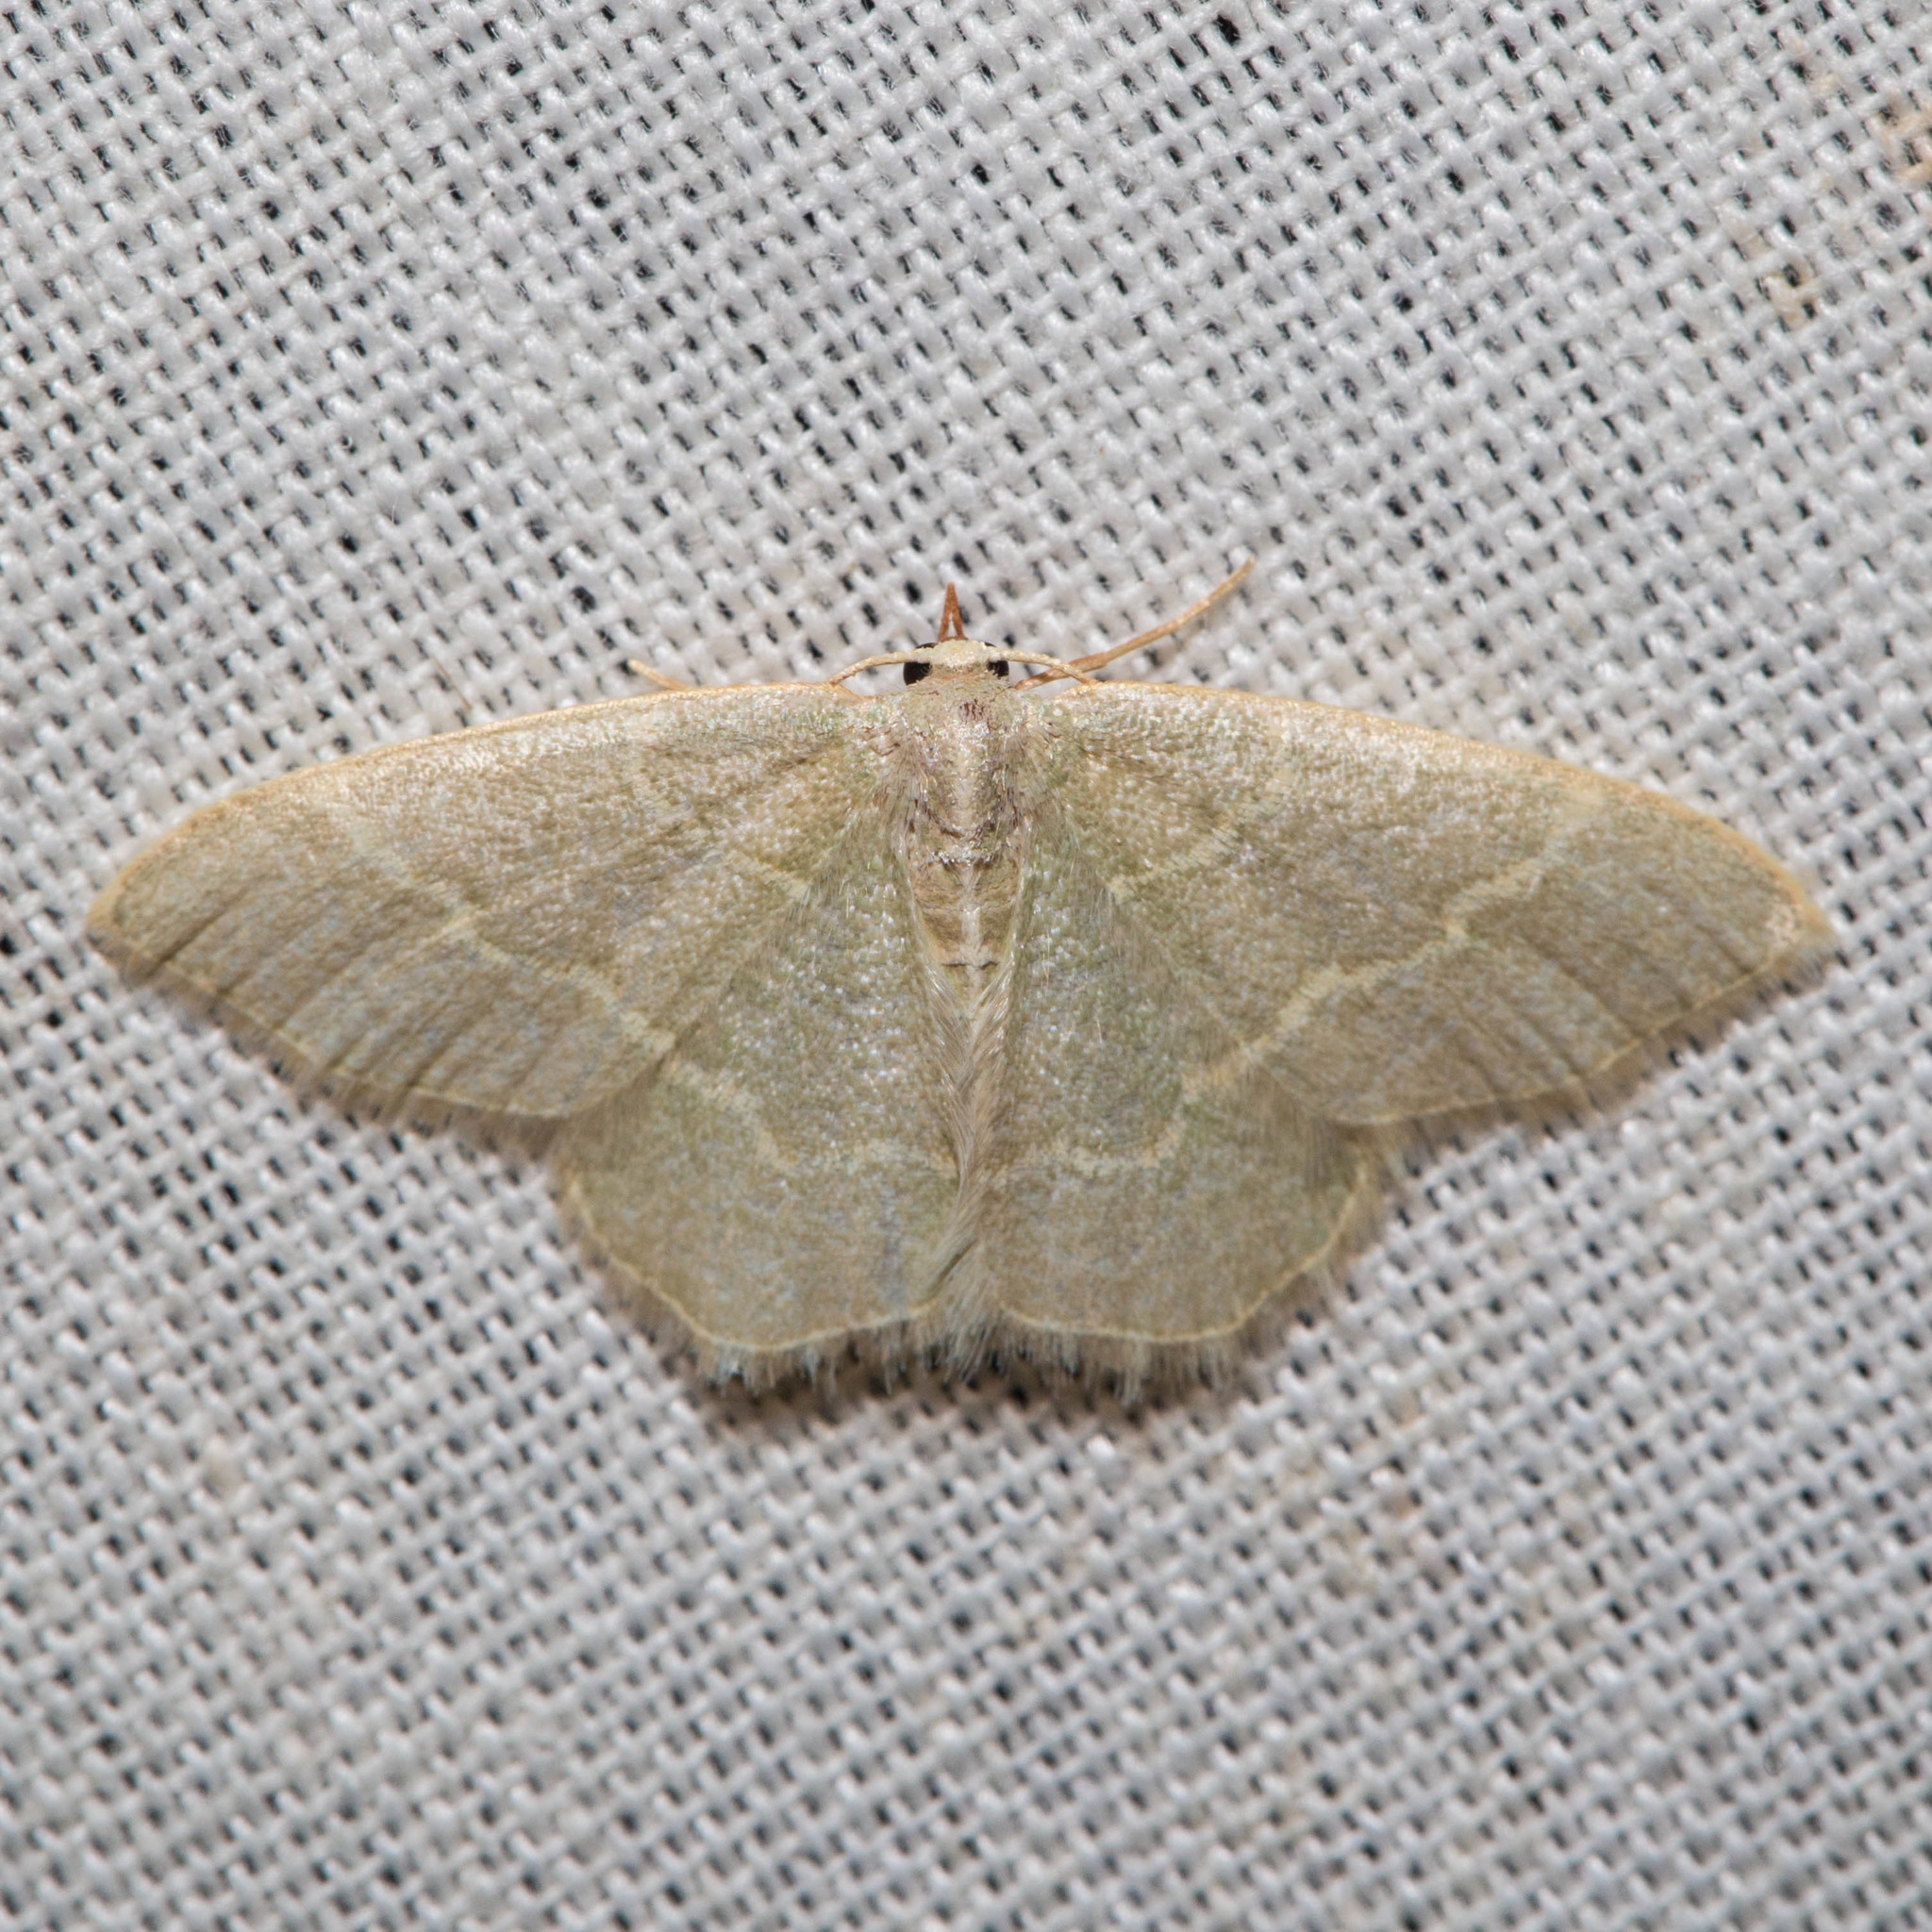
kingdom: Animalia
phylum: Arthropoda
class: Insecta
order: Lepidoptera
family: Geometridae
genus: Chlorochlamys
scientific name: Chlorochlamys appellaria
